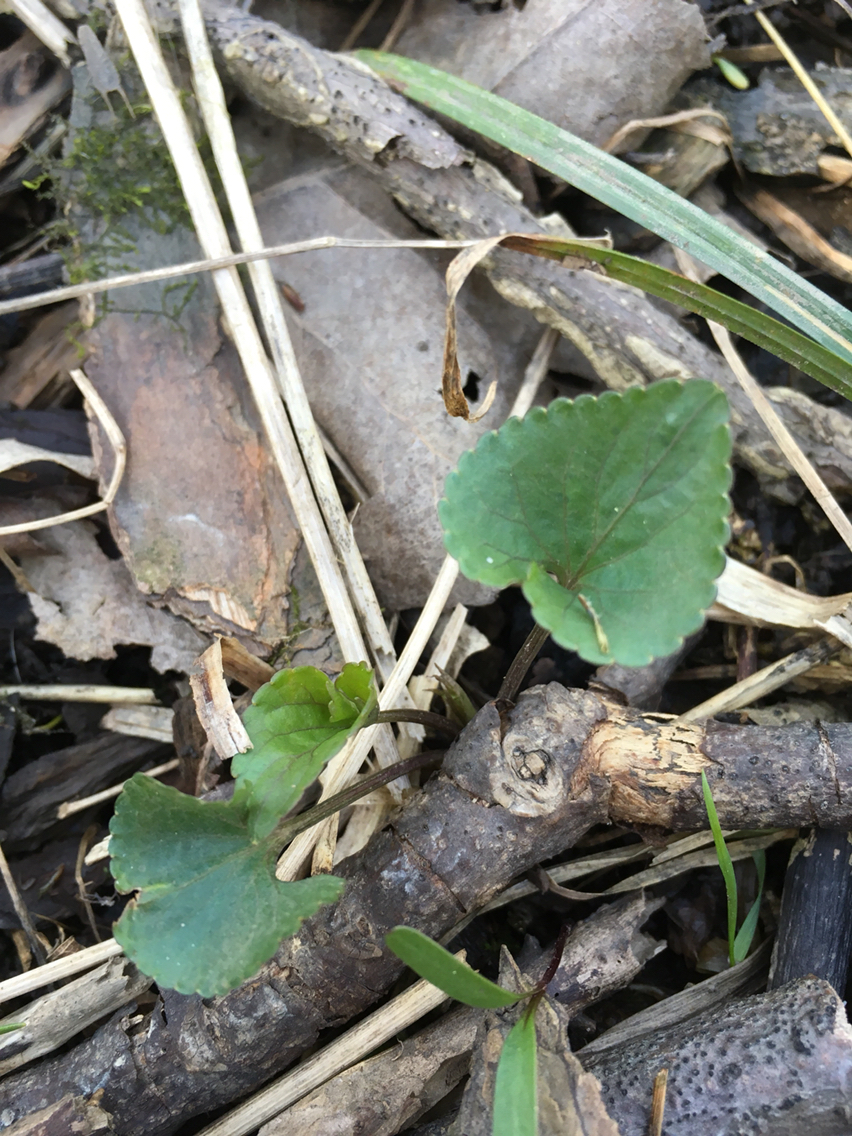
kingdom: Plantae
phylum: Tracheophyta
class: Magnoliopsida
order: Malpighiales
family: Violaceae
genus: Viola
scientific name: Viola sororia
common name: Dooryard violet
